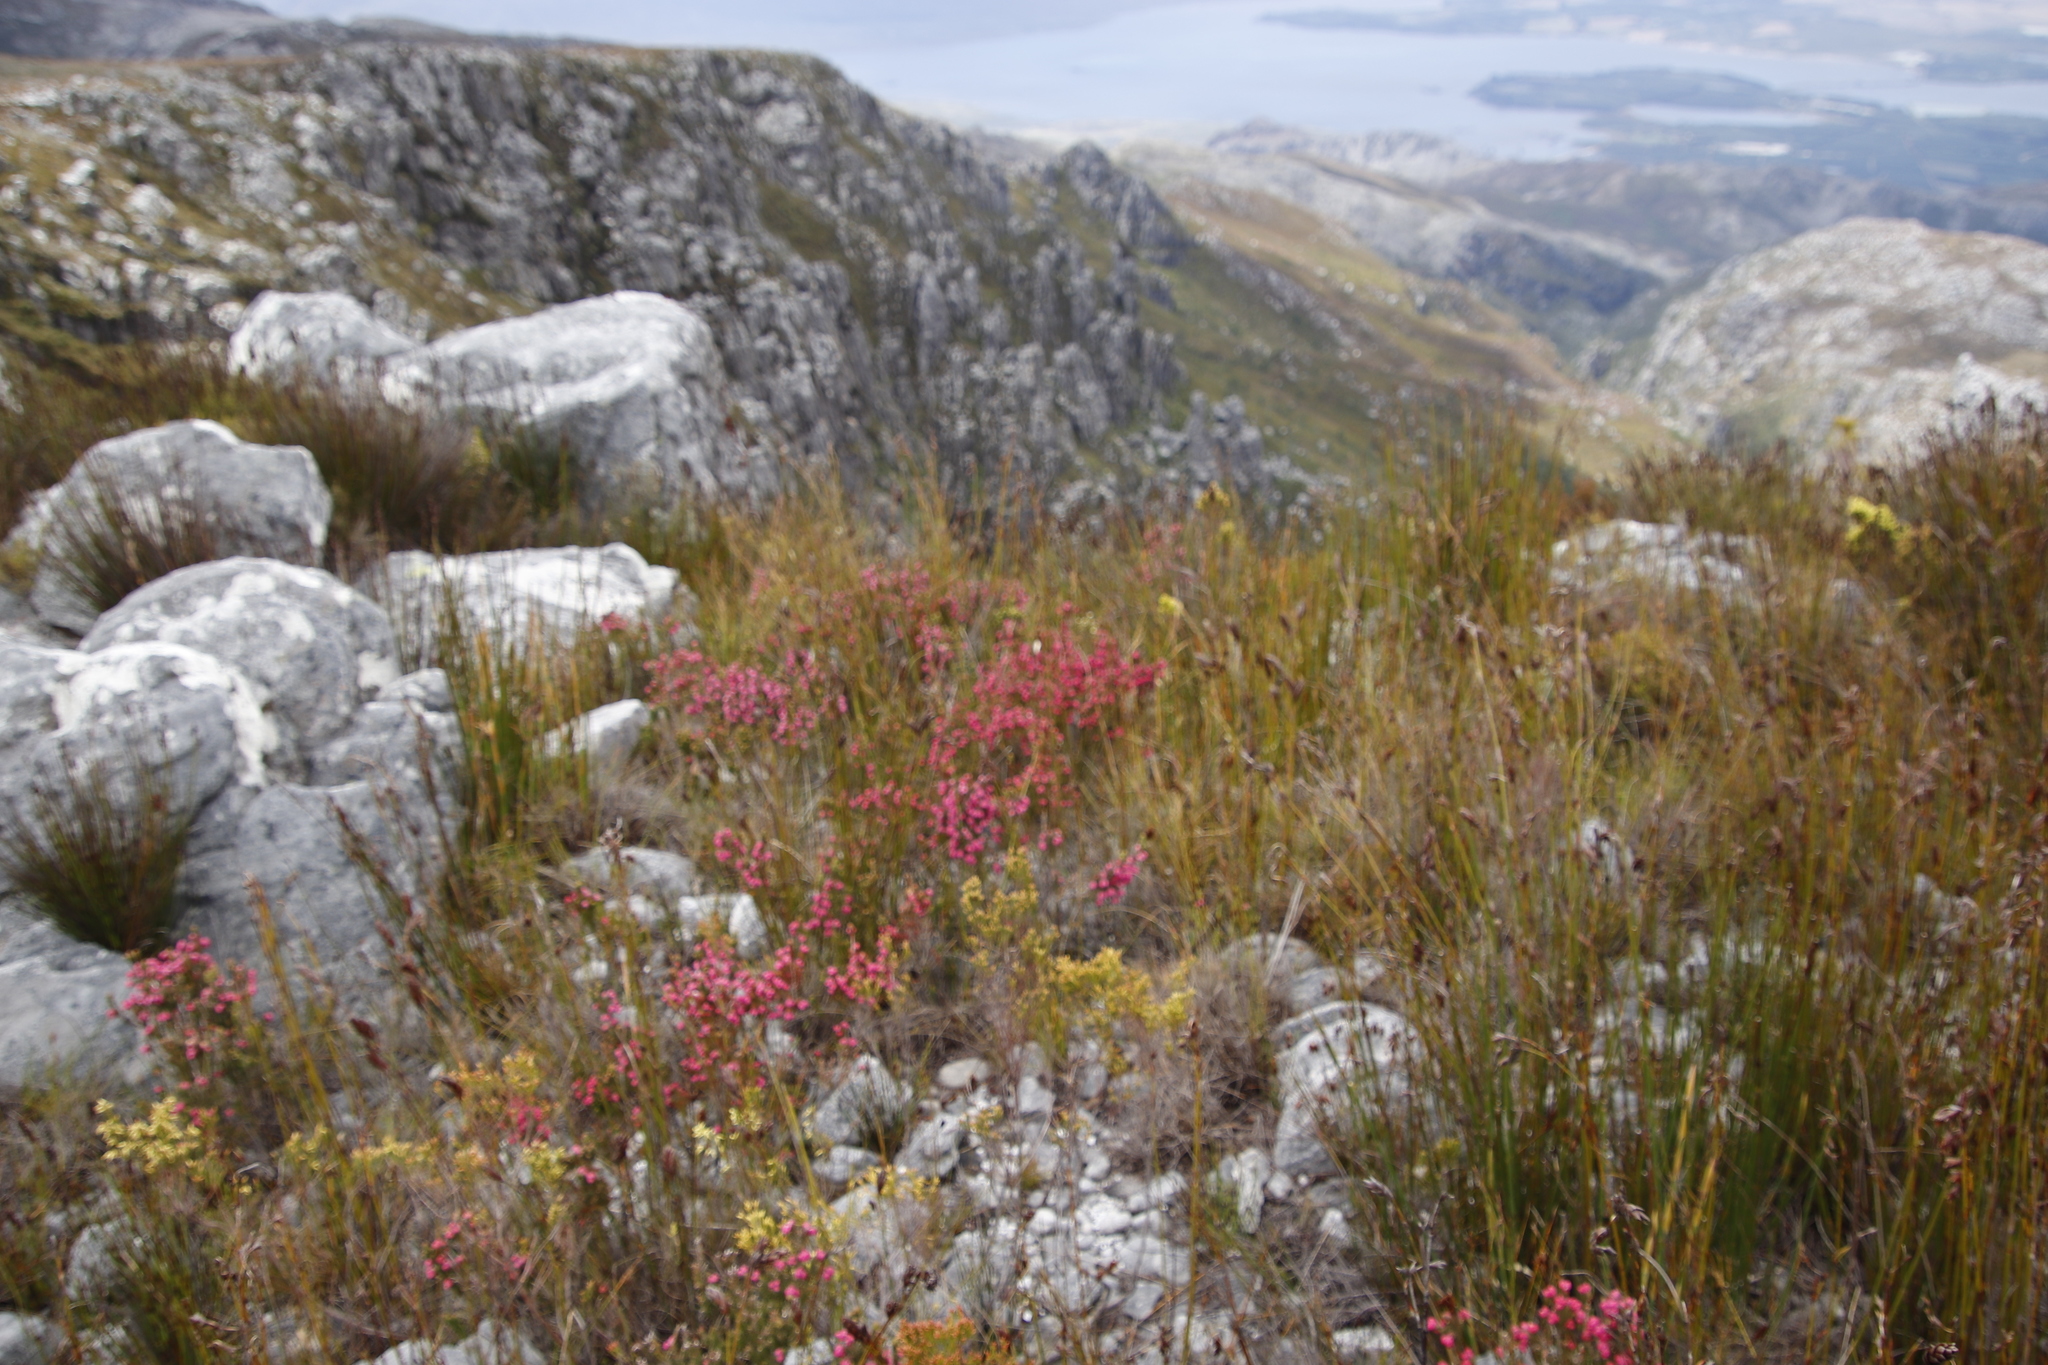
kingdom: Plantae
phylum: Tracheophyta
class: Magnoliopsida
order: Ericales
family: Ericaceae
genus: Erica
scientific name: Erica tegulifolia
